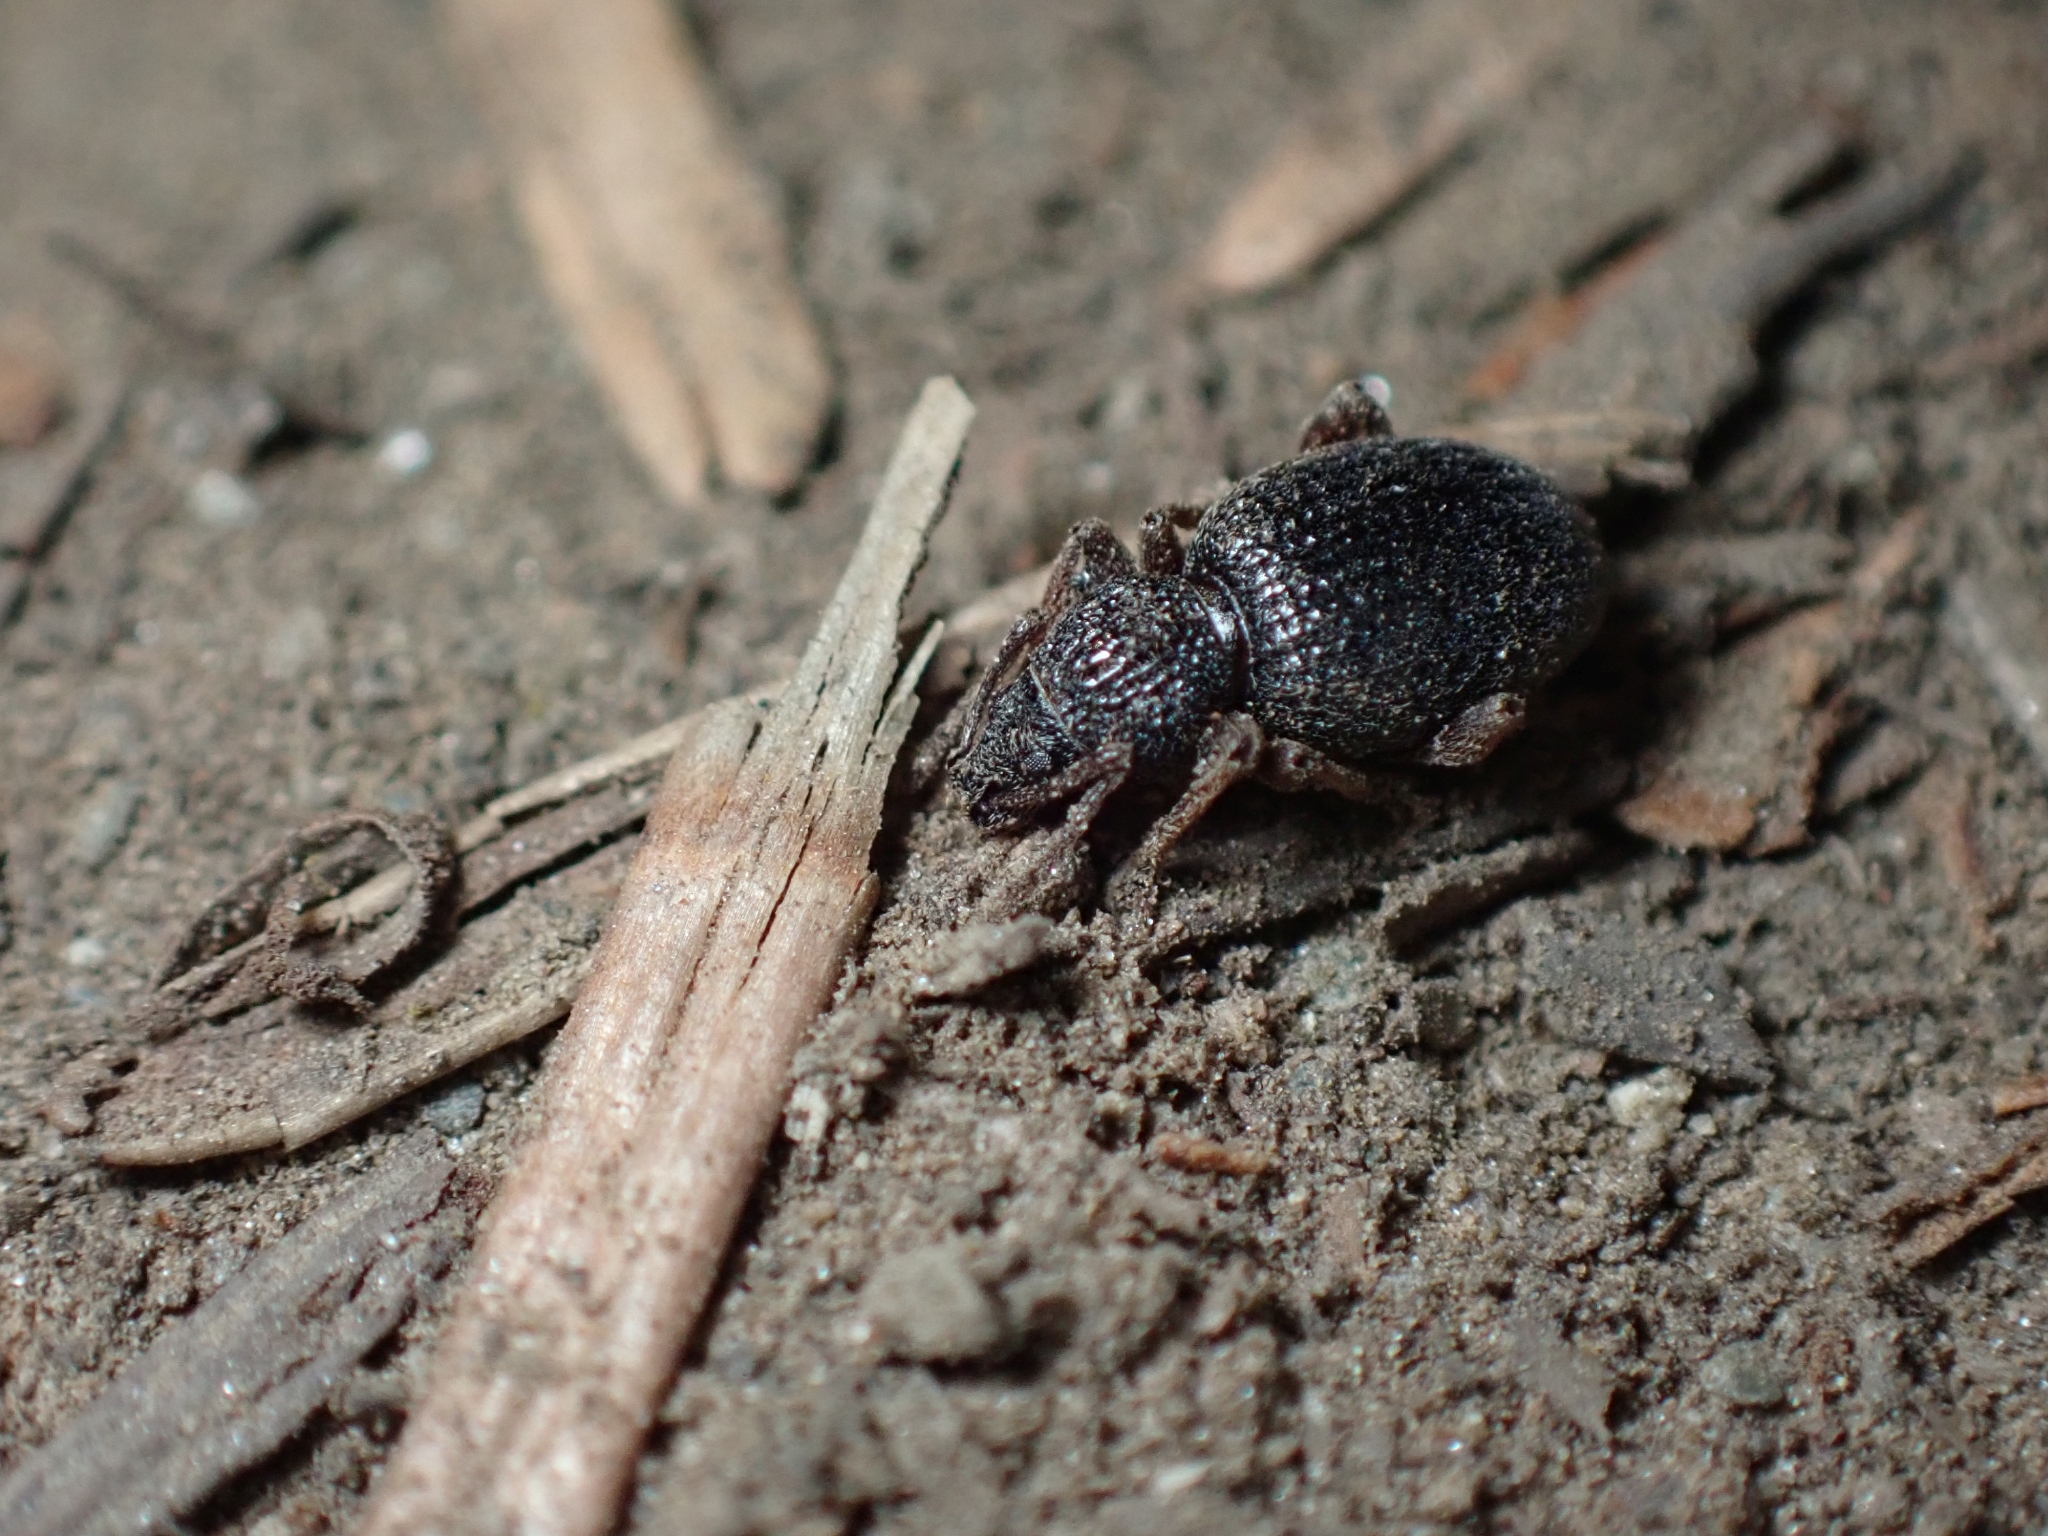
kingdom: Animalia
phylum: Arthropoda
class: Insecta
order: Coleoptera
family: Curculionidae
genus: Otiorhynchus
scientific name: Otiorhynchus ovatus
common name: Strawberry root weevil
